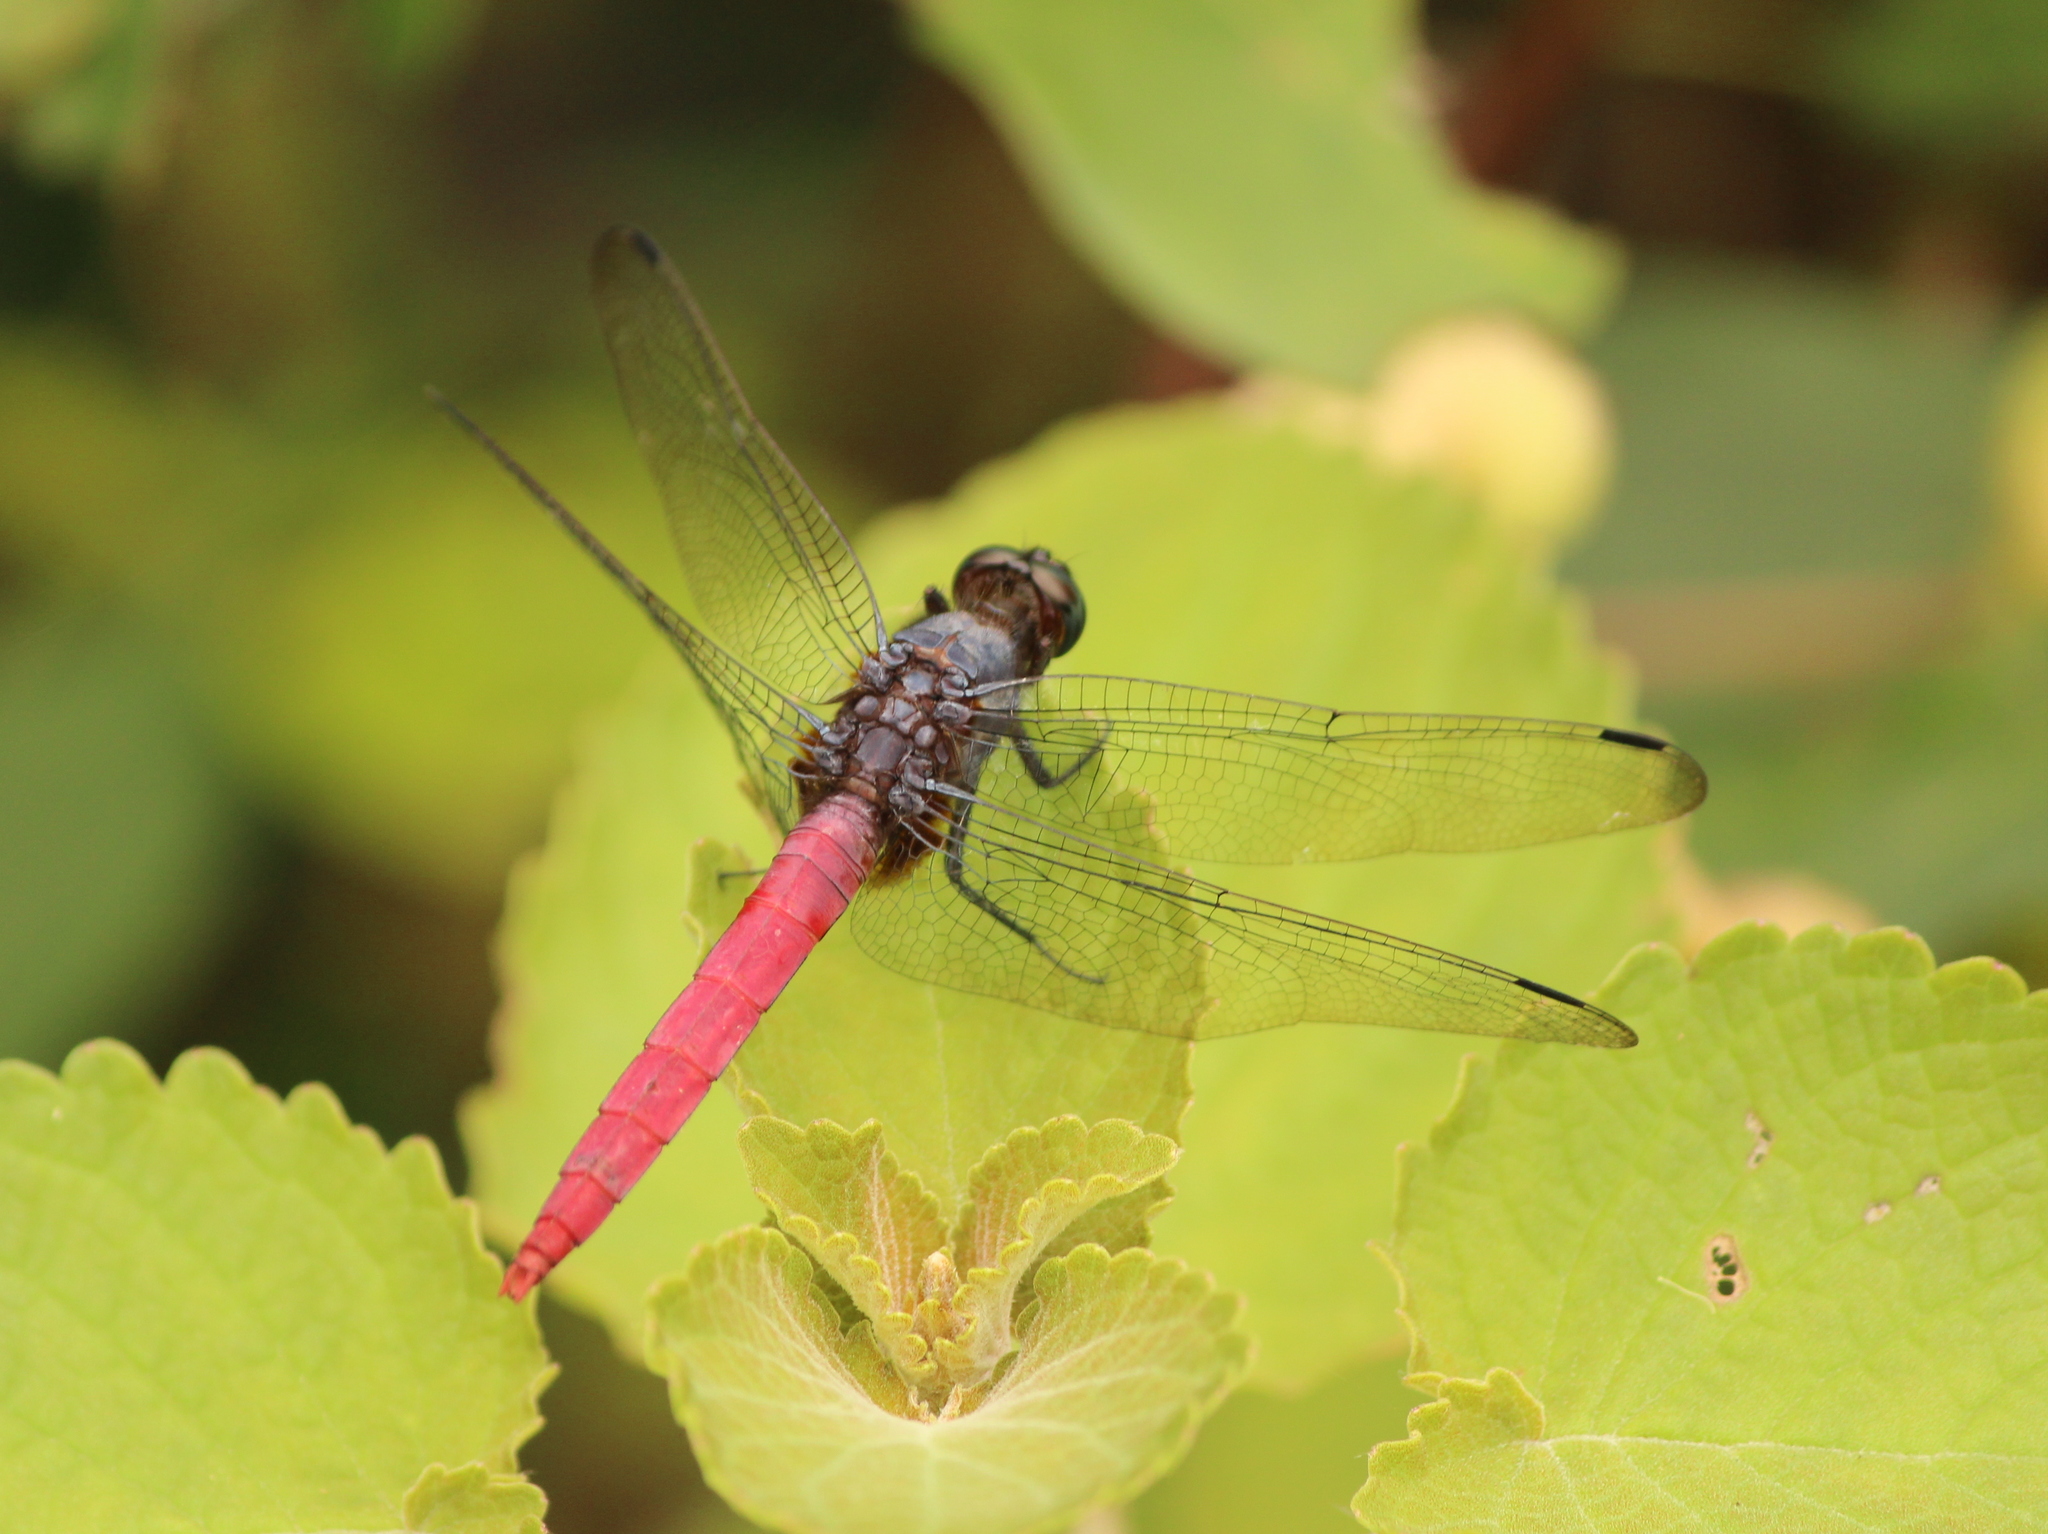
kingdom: Animalia
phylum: Arthropoda
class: Insecta
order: Odonata
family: Libellulidae
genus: Orthetrum
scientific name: Orthetrum pruinosum
